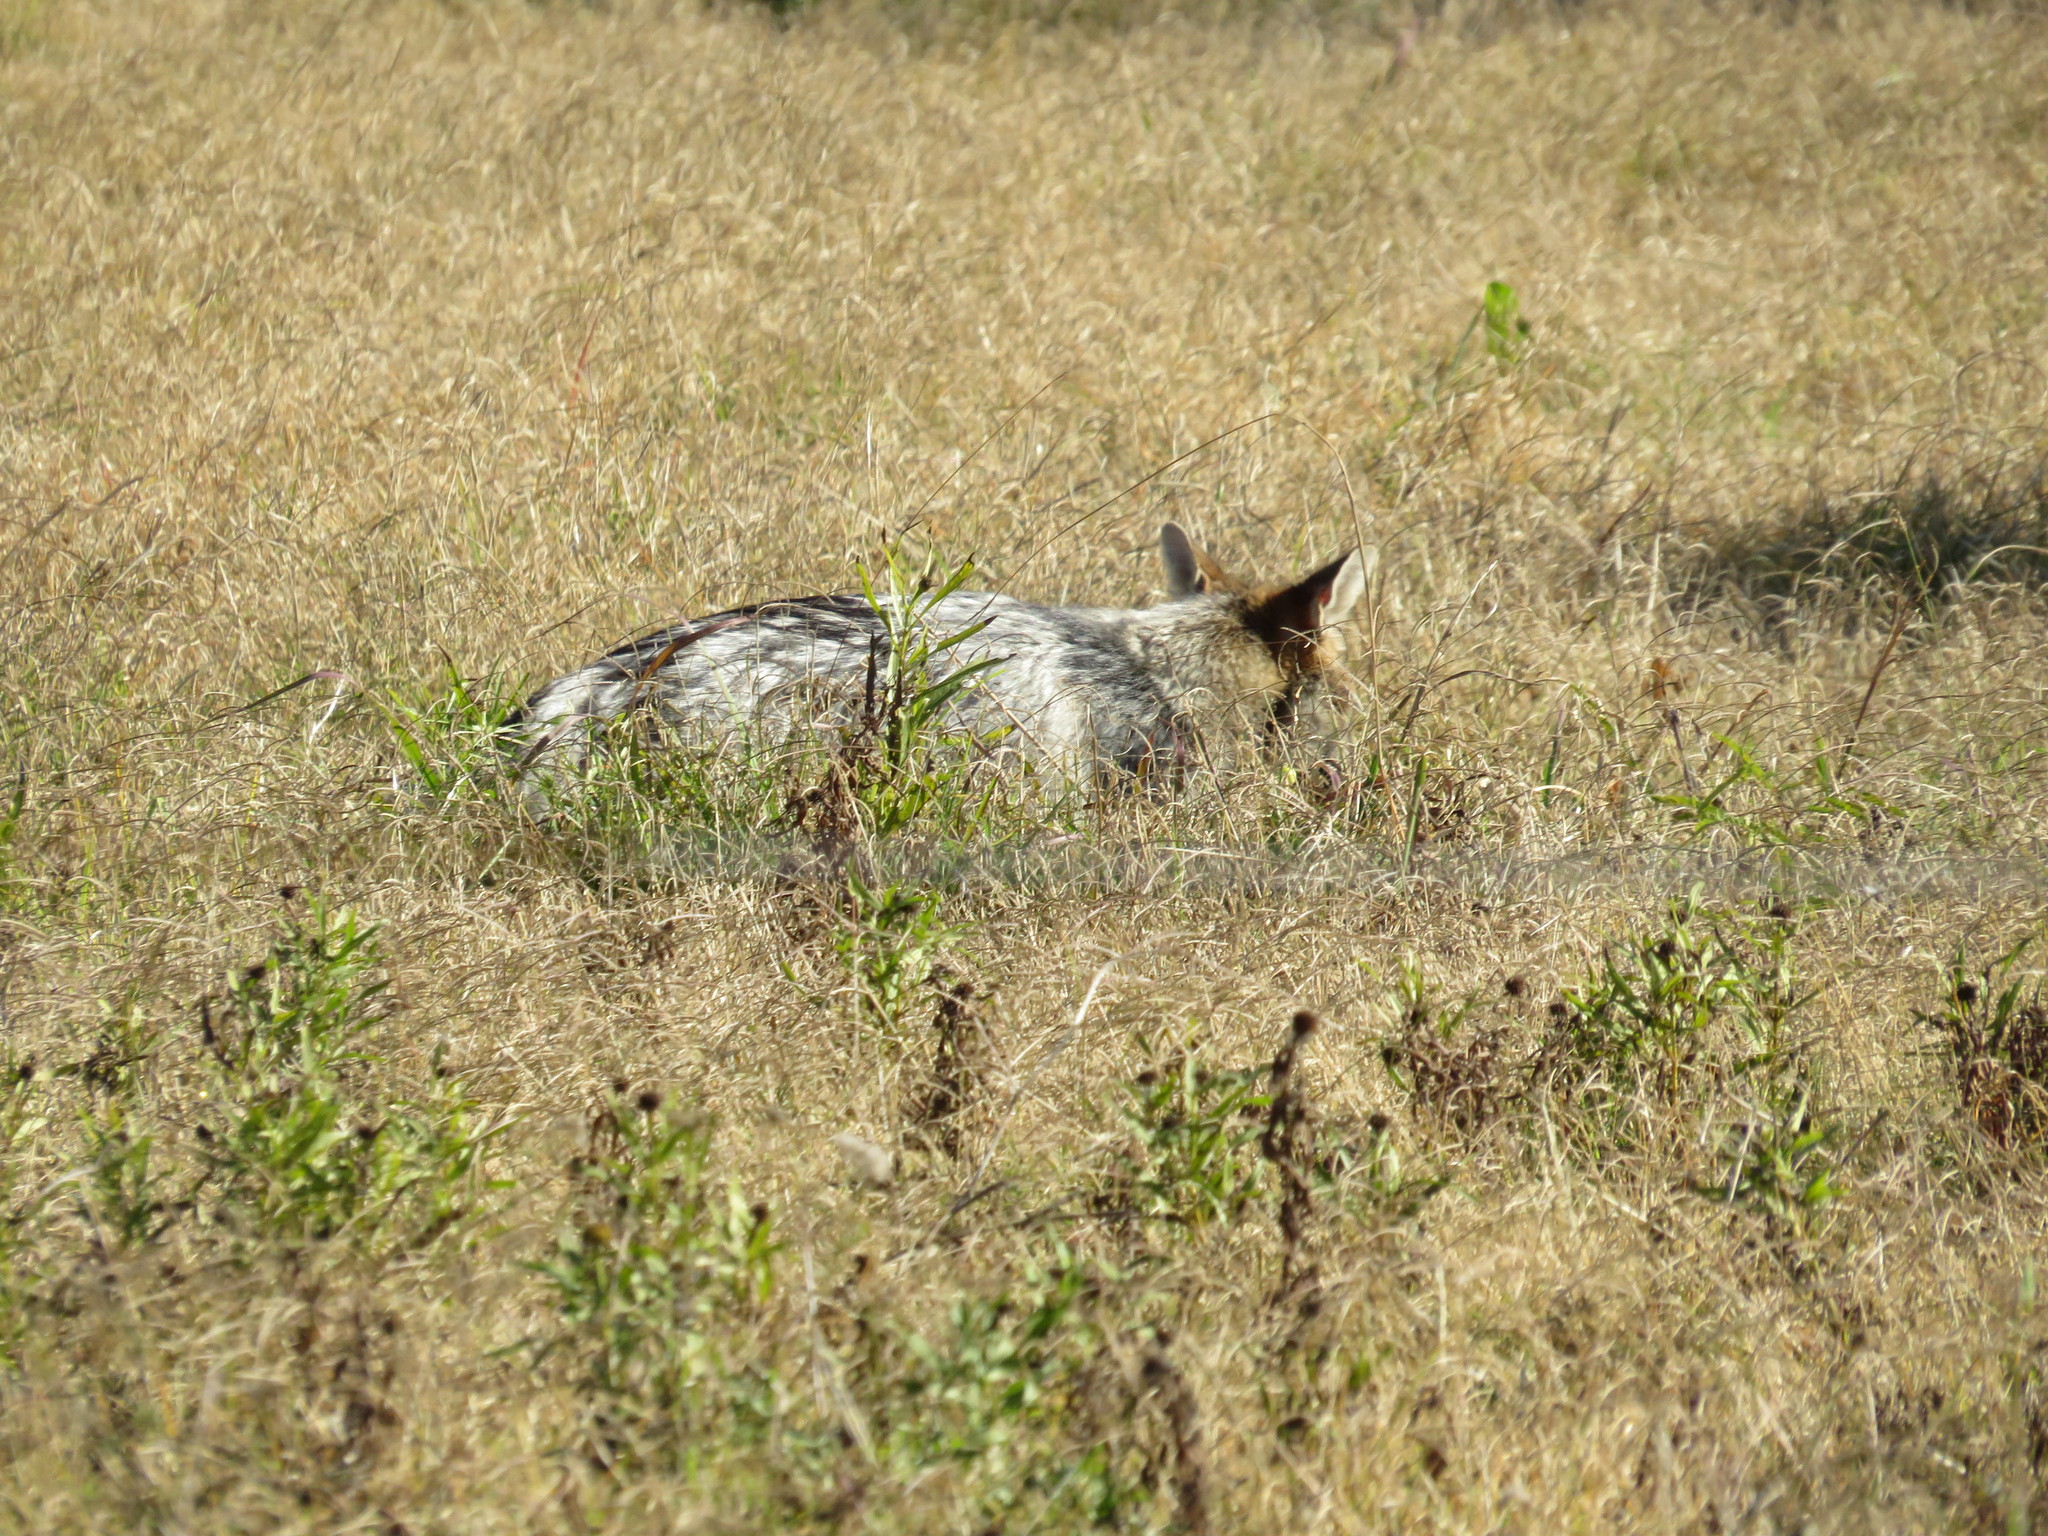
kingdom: Animalia
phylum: Chordata
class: Mammalia
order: Carnivora
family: Canidae
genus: Lycalopex
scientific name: Lycalopex gymnocercus
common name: Pampas fox
